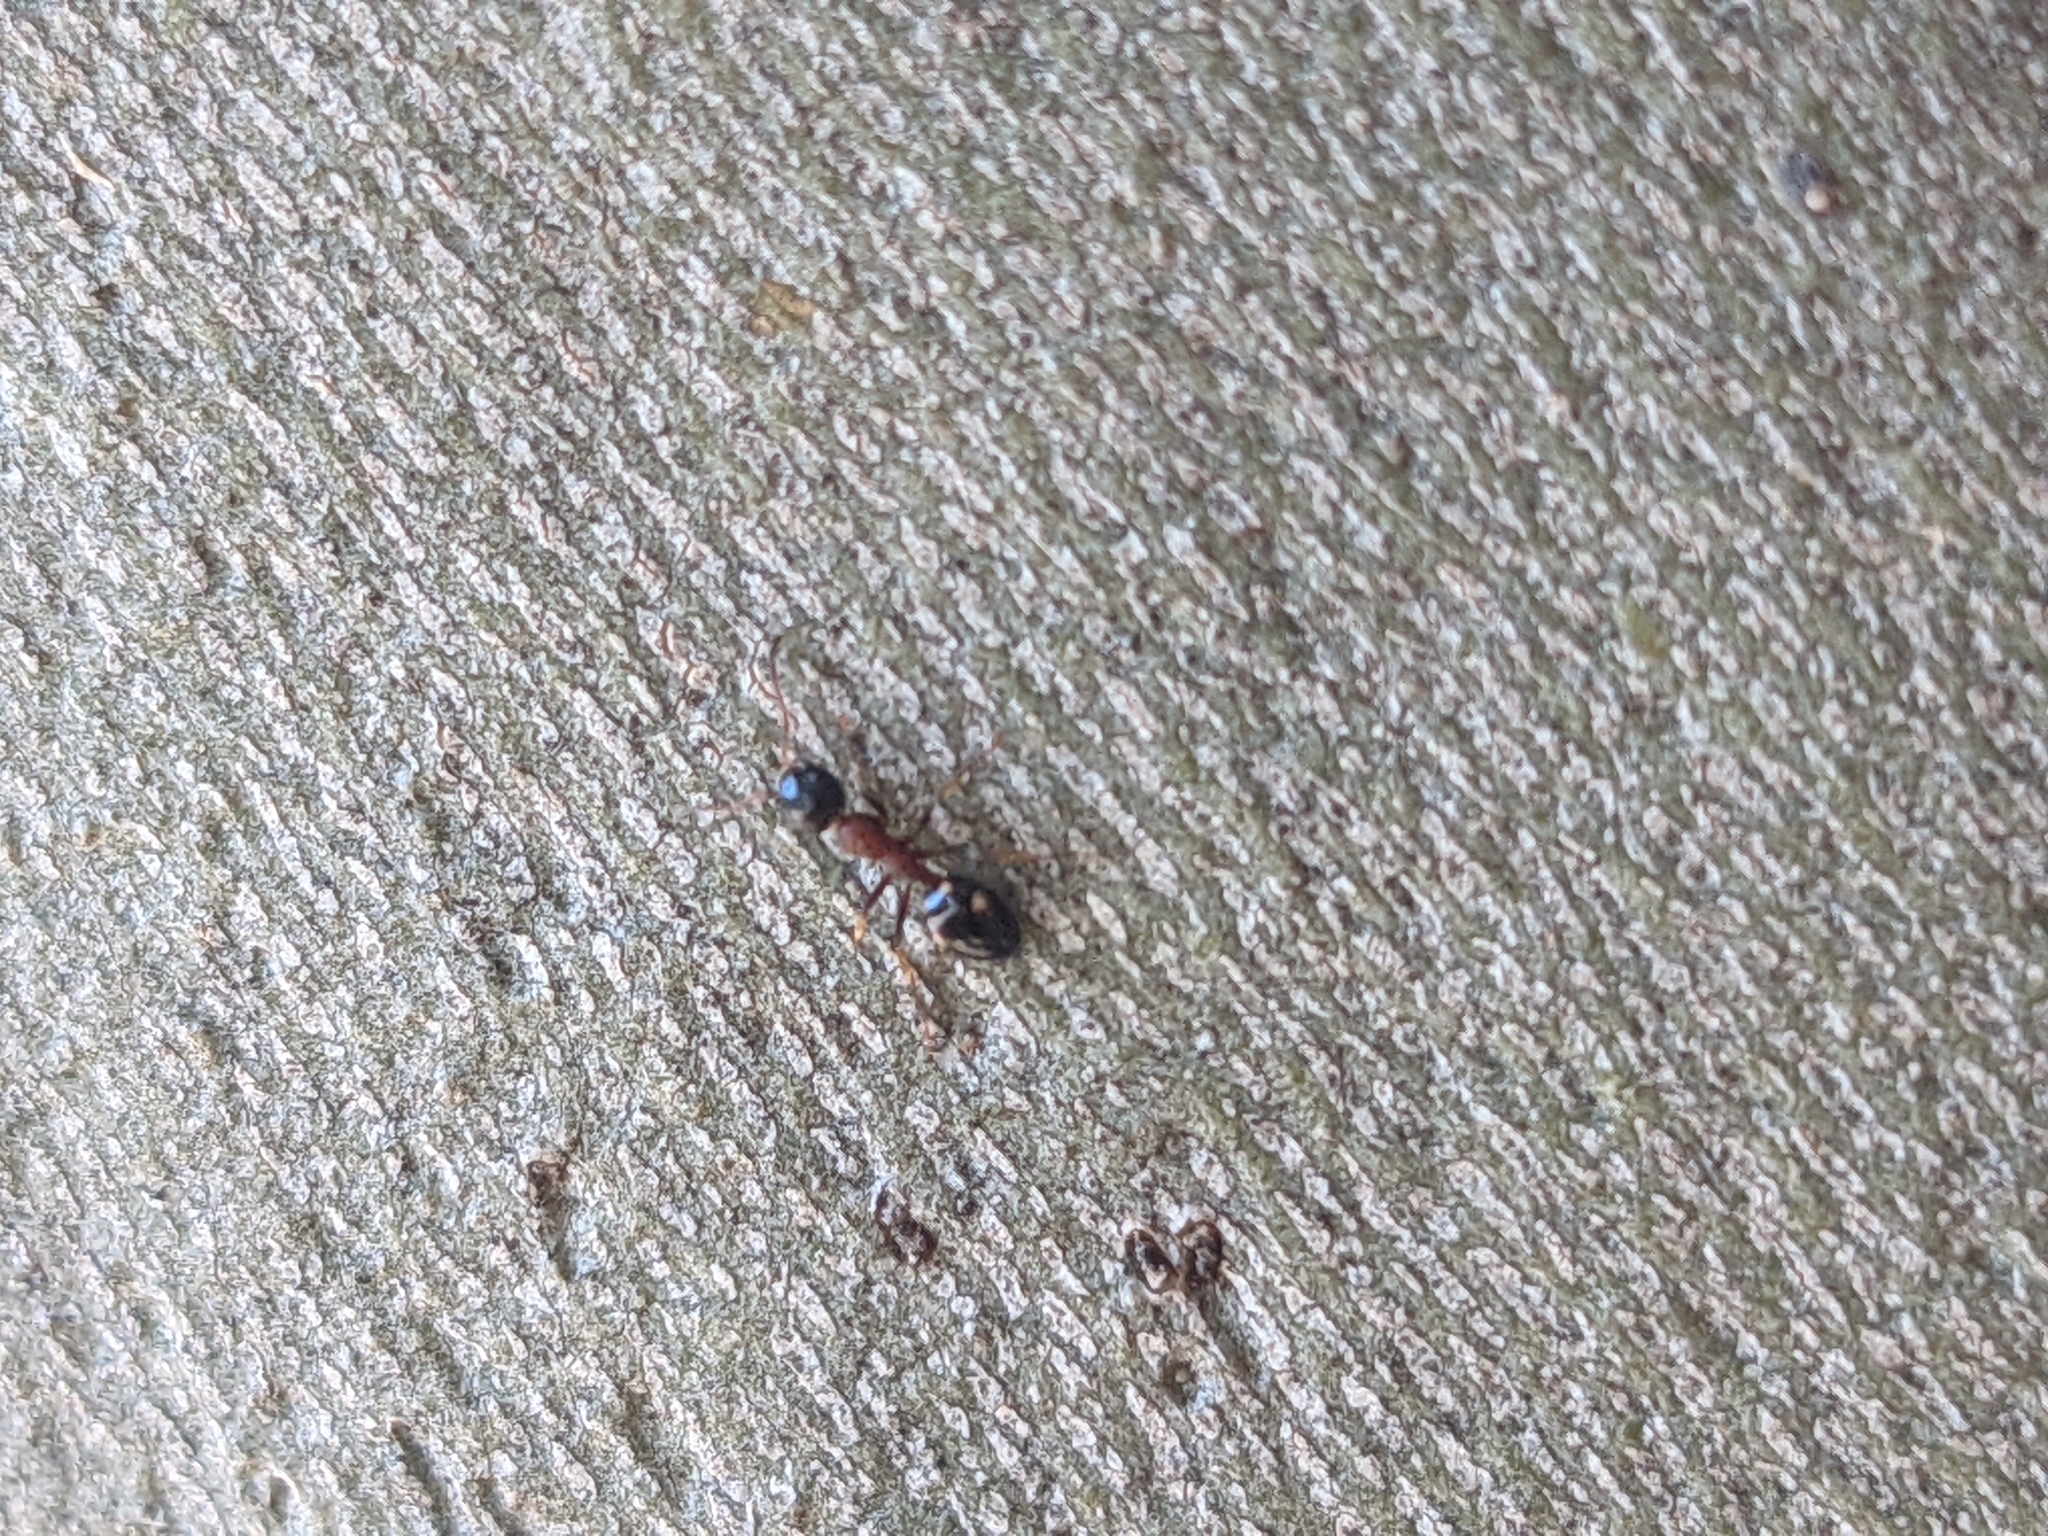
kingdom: Animalia
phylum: Arthropoda
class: Insecta
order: Hymenoptera
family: Formicidae
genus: Dolichoderus
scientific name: Dolichoderus quadripunctatus
